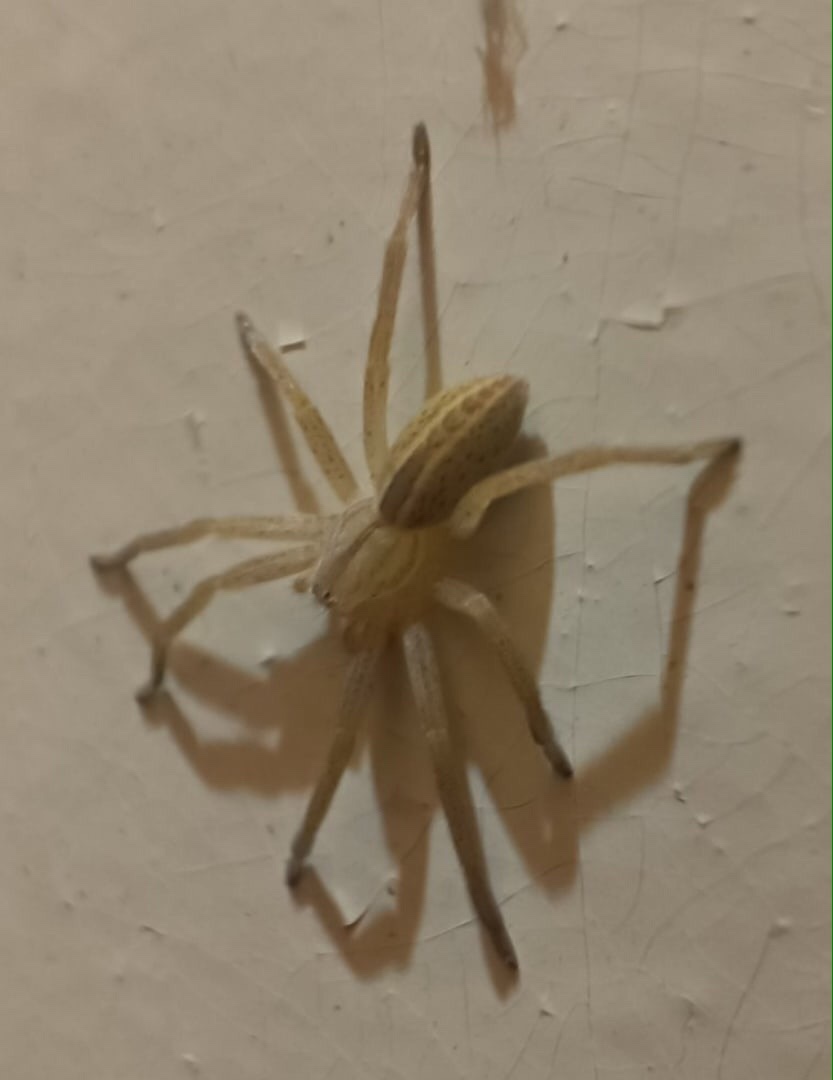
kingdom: Animalia
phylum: Arthropoda
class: Arachnida
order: Araneae
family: Sparassidae
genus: Micrommata
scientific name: Micrommata virescens
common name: Green spider
